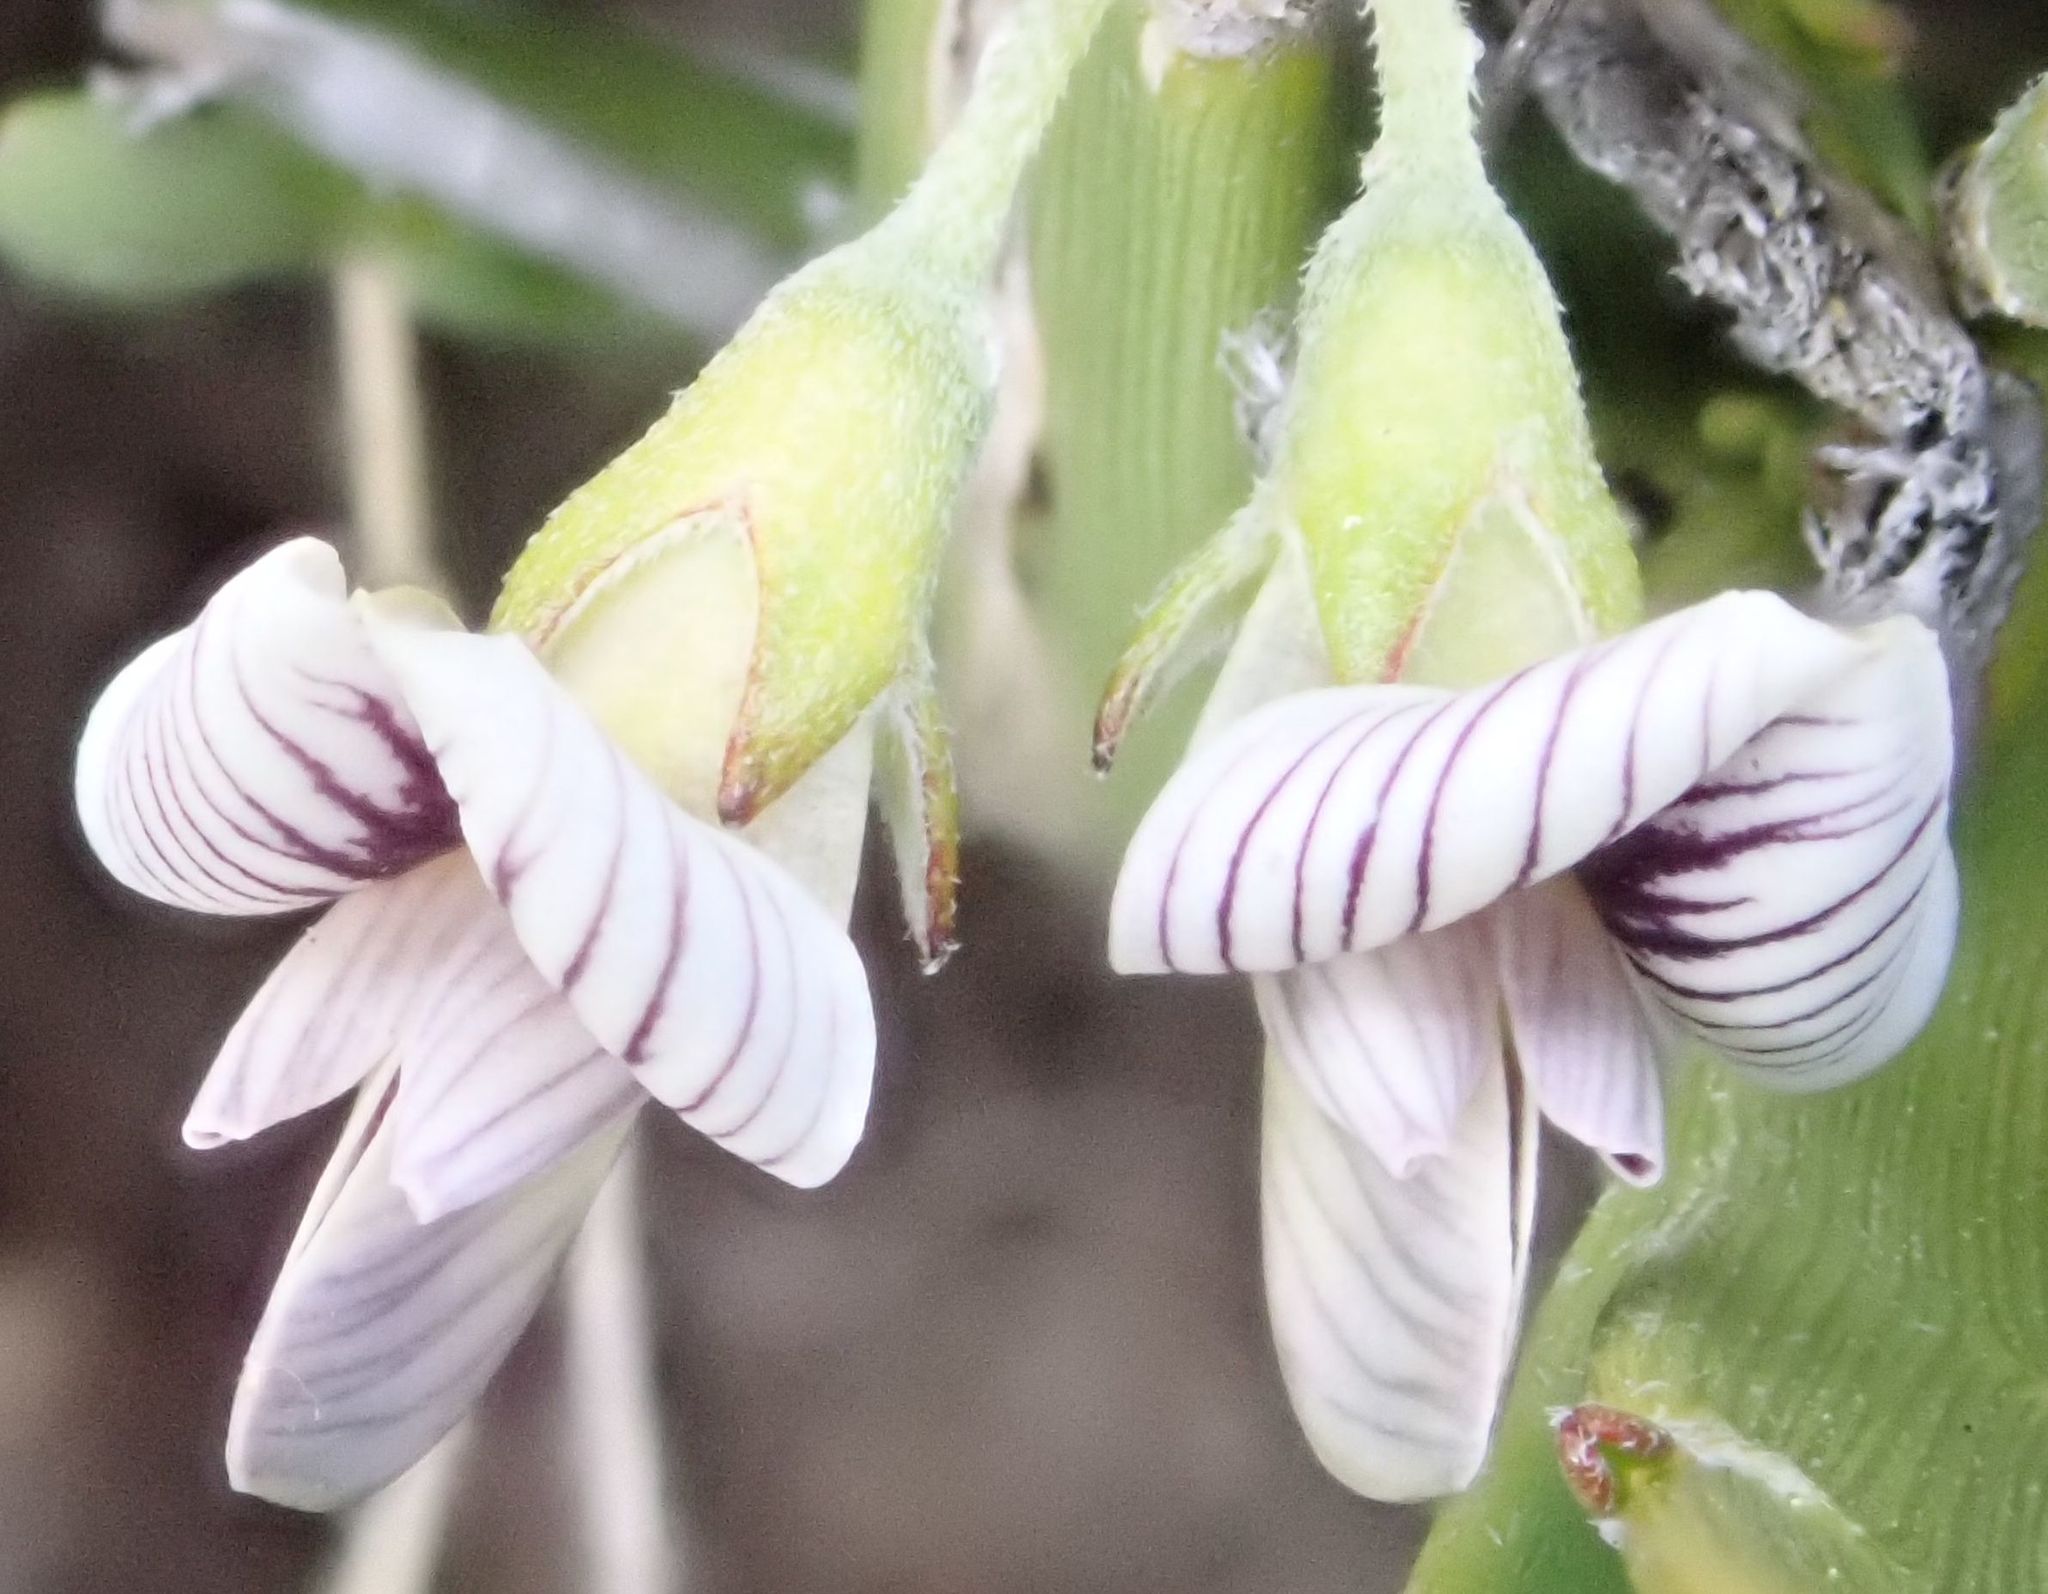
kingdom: Plantae
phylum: Tracheophyta
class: Magnoliopsida
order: Fabales
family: Fabaceae
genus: Carmichaelia
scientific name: Carmichaelia monroi
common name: Stout dwarf broom
